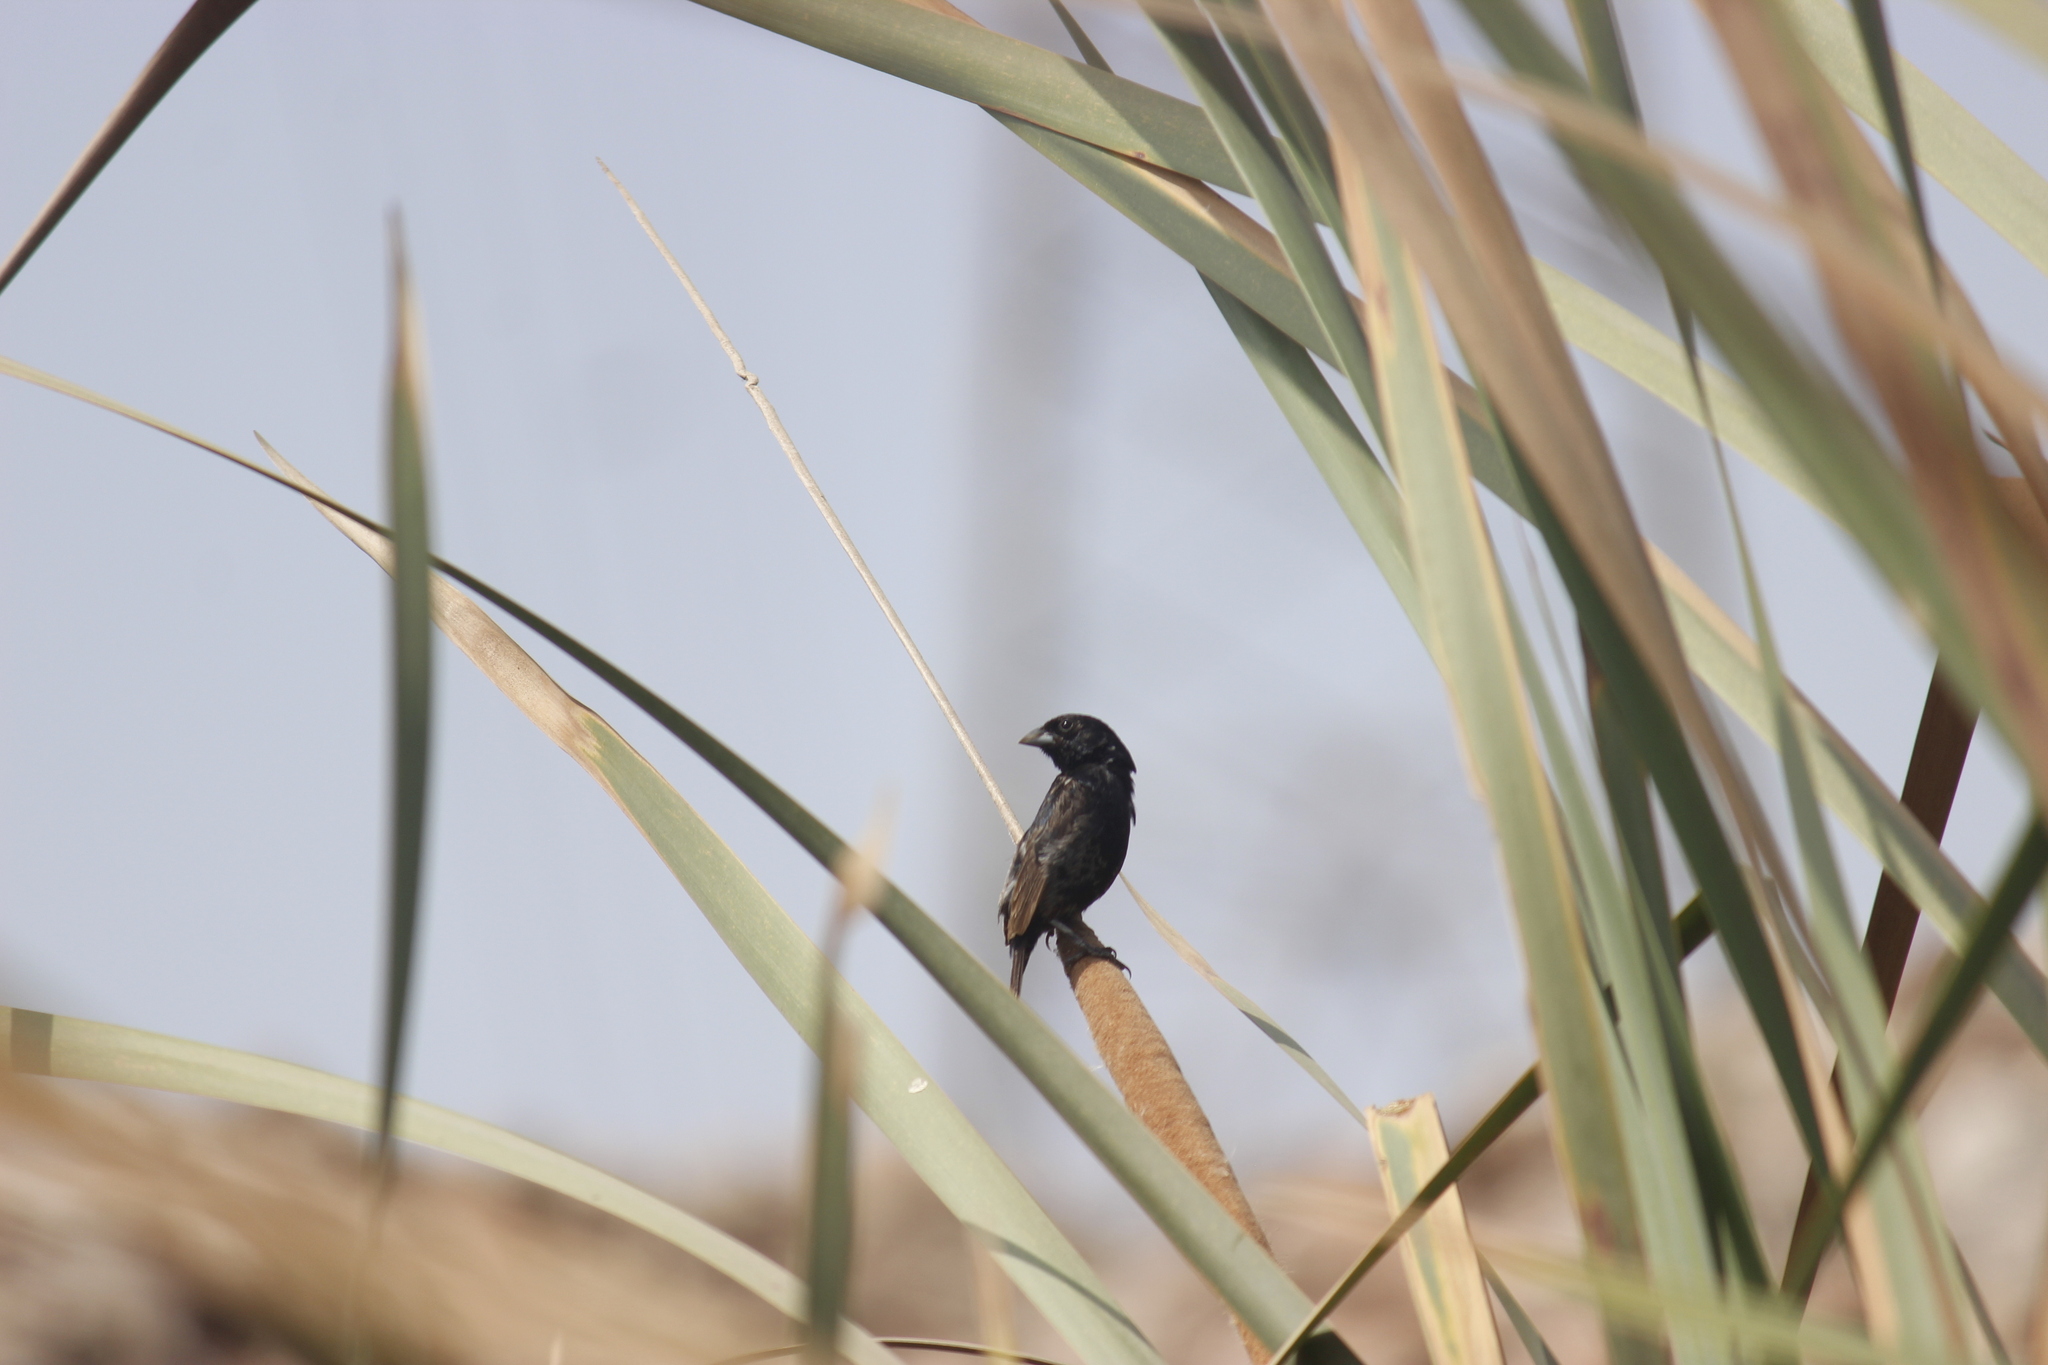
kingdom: Animalia
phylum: Chordata
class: Aves
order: Passeriformes
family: Thraupidae
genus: Volatinia
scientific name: Volatinia jacarina
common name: Blue-black grassquit
